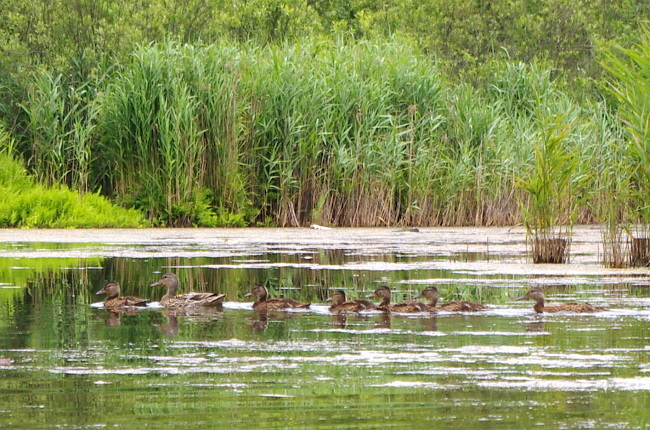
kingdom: Animalia
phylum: Chordata
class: Aves
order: Anseriformes
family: Anatidae
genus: Anas
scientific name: Anas platyrhynchos
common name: Mallard
